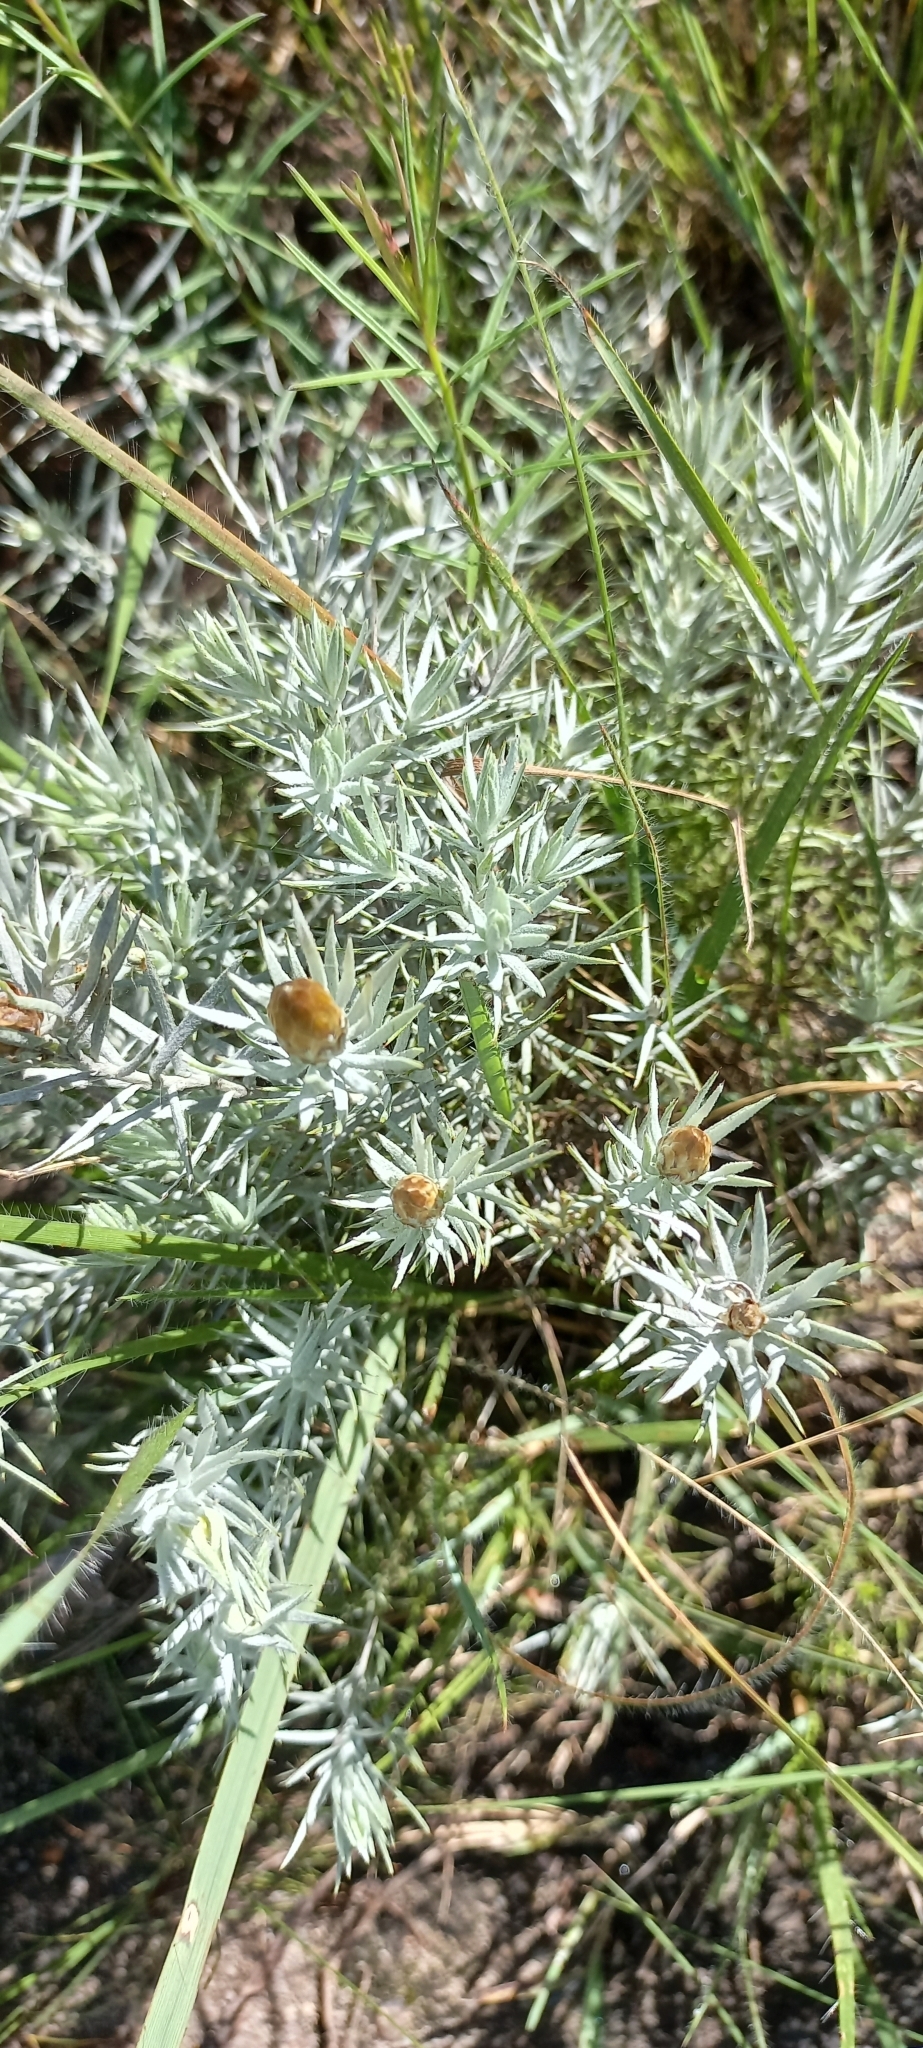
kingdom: Plantae
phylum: Tracheophyta
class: Magnoliopsida
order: Asterales
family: Asteraceae
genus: Oedera
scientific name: Oedera pungens
